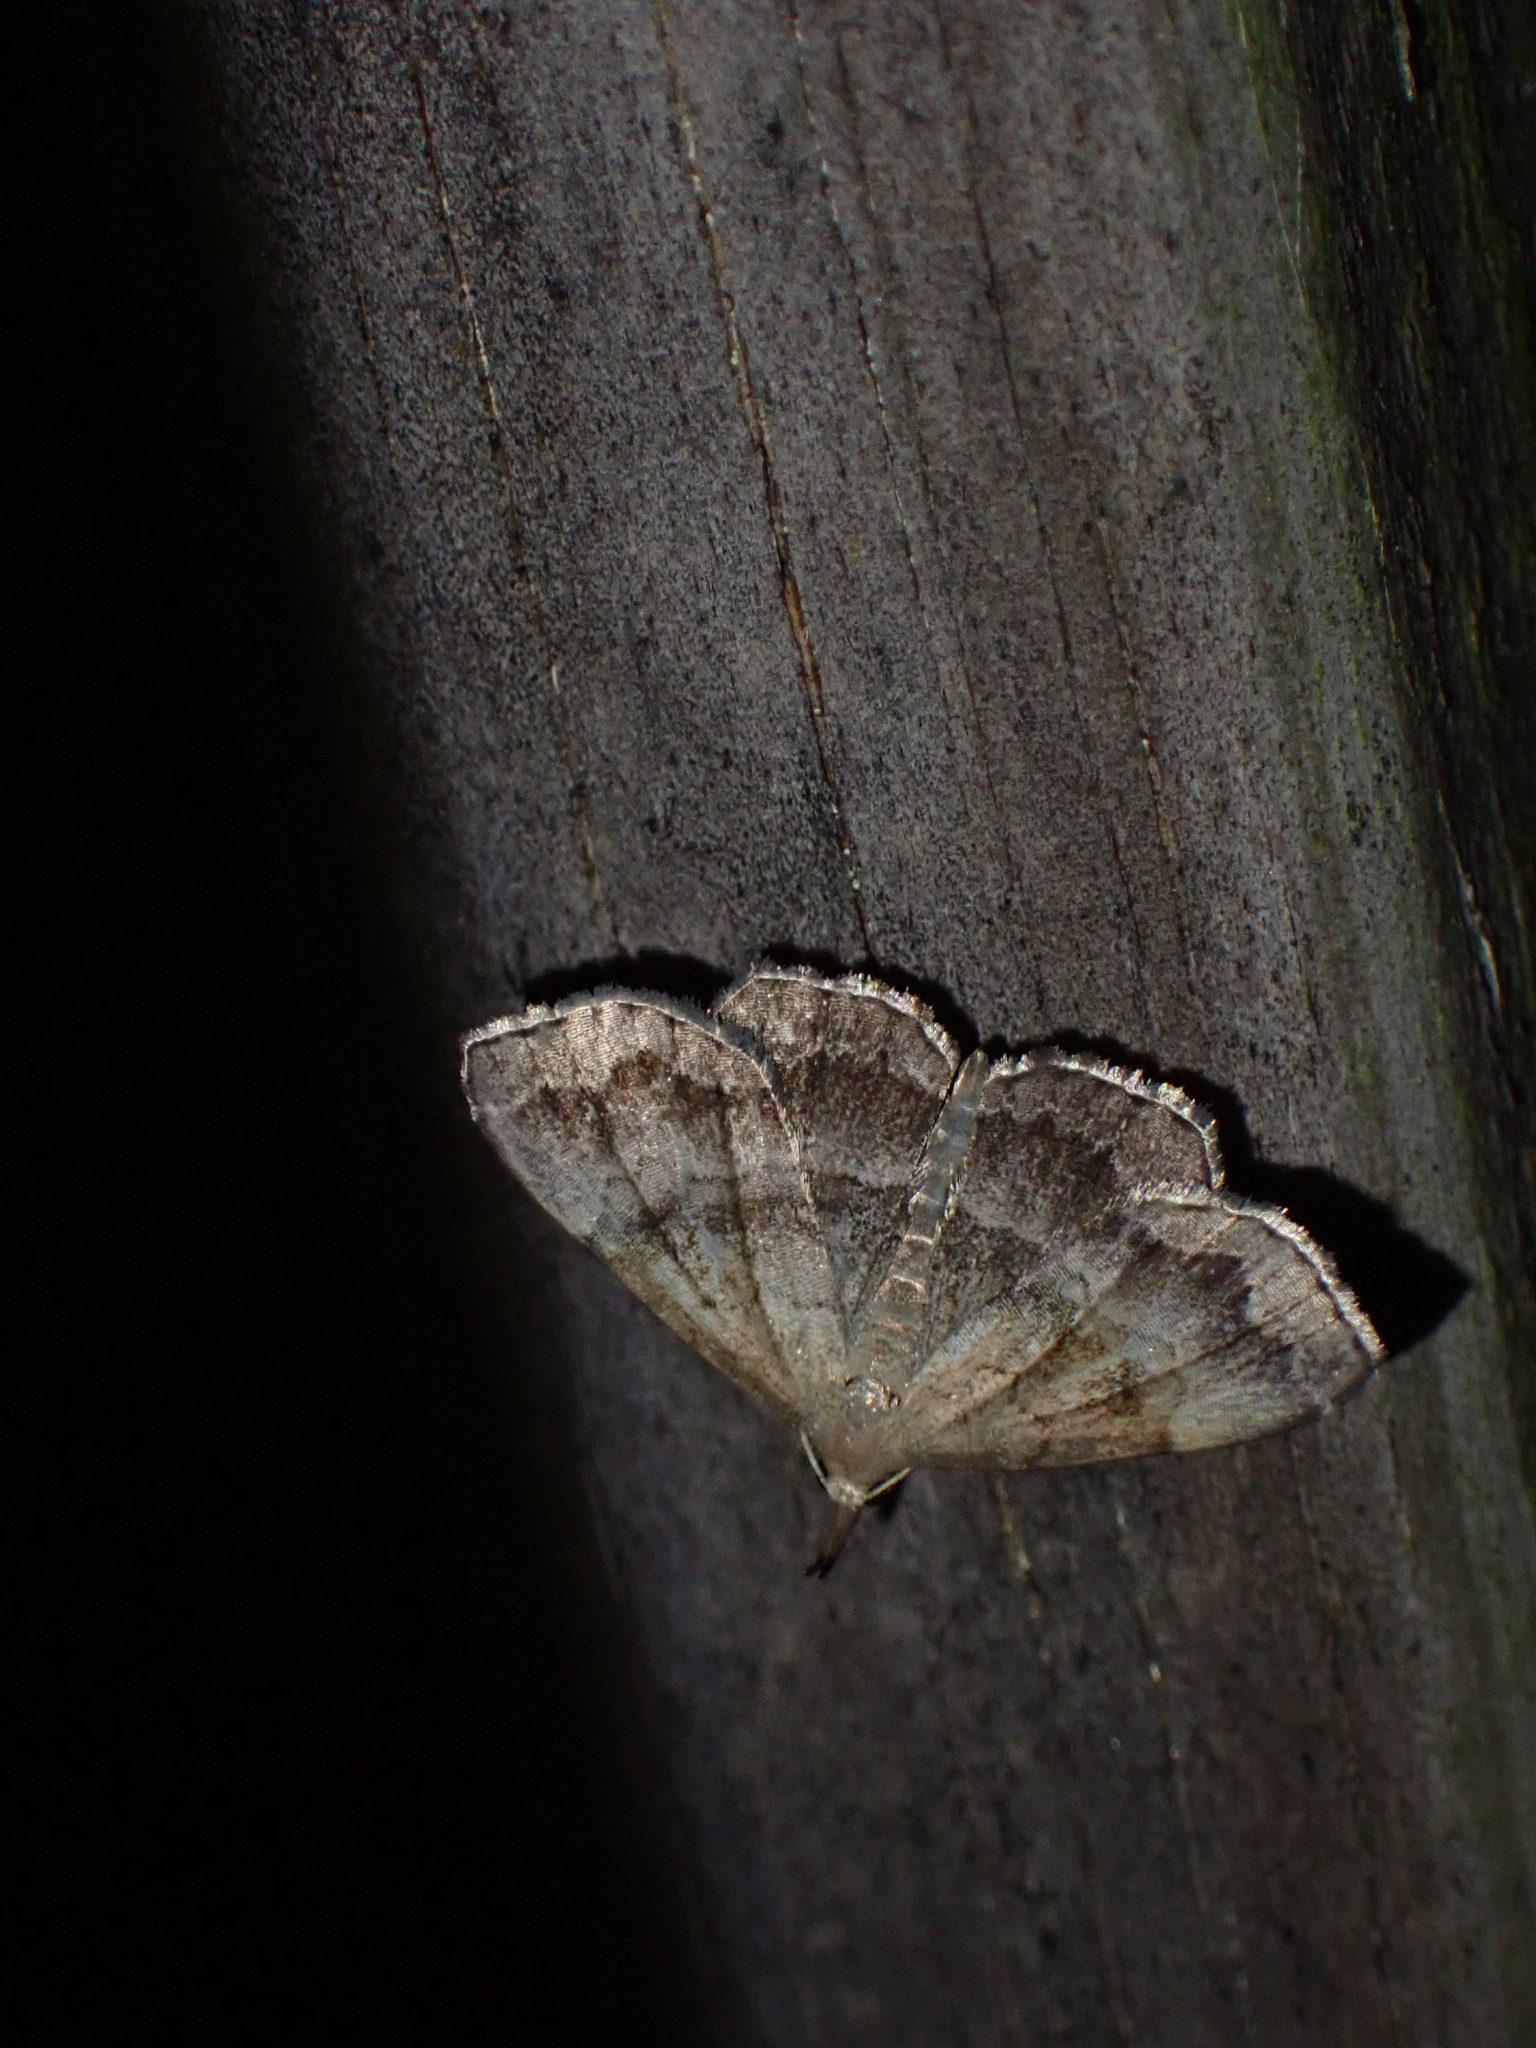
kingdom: Animalia
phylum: Arthropoda
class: Insecta
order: Lepidoptera
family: Erebidae
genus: Phalaenostola
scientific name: Phalaenostola larentioides
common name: Black-banded owlet
